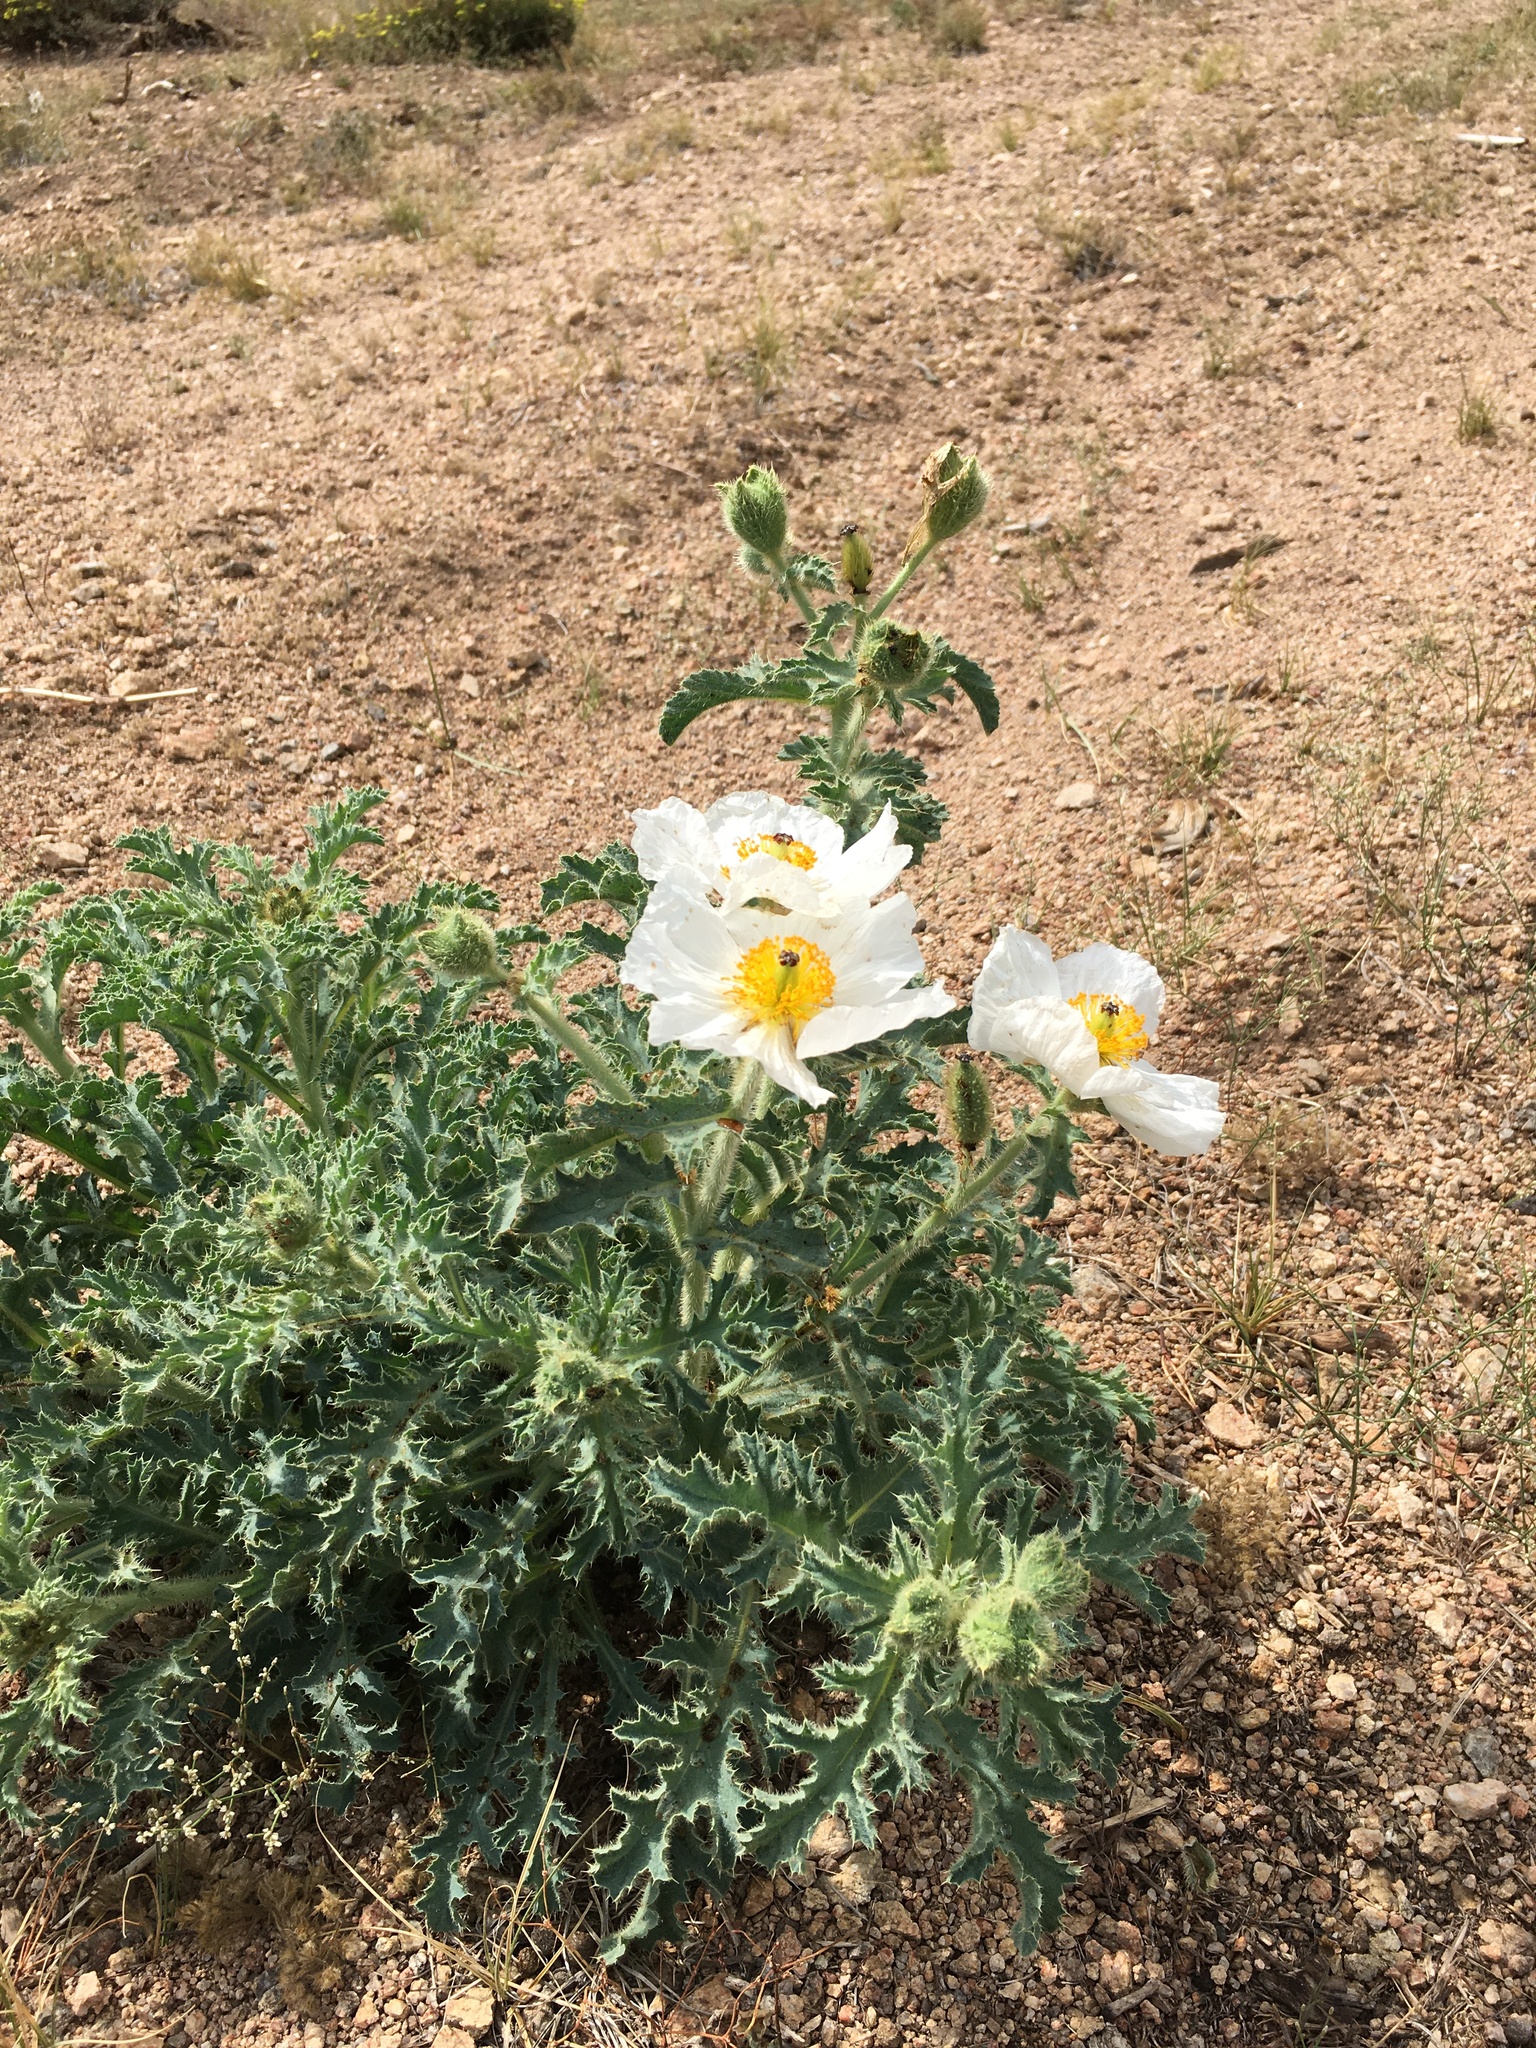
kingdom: Plantae
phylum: Tracheophyta
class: Magnoliopsida
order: Ranunculales
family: Papaveraceae
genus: Argemone
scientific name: Argemone munita
